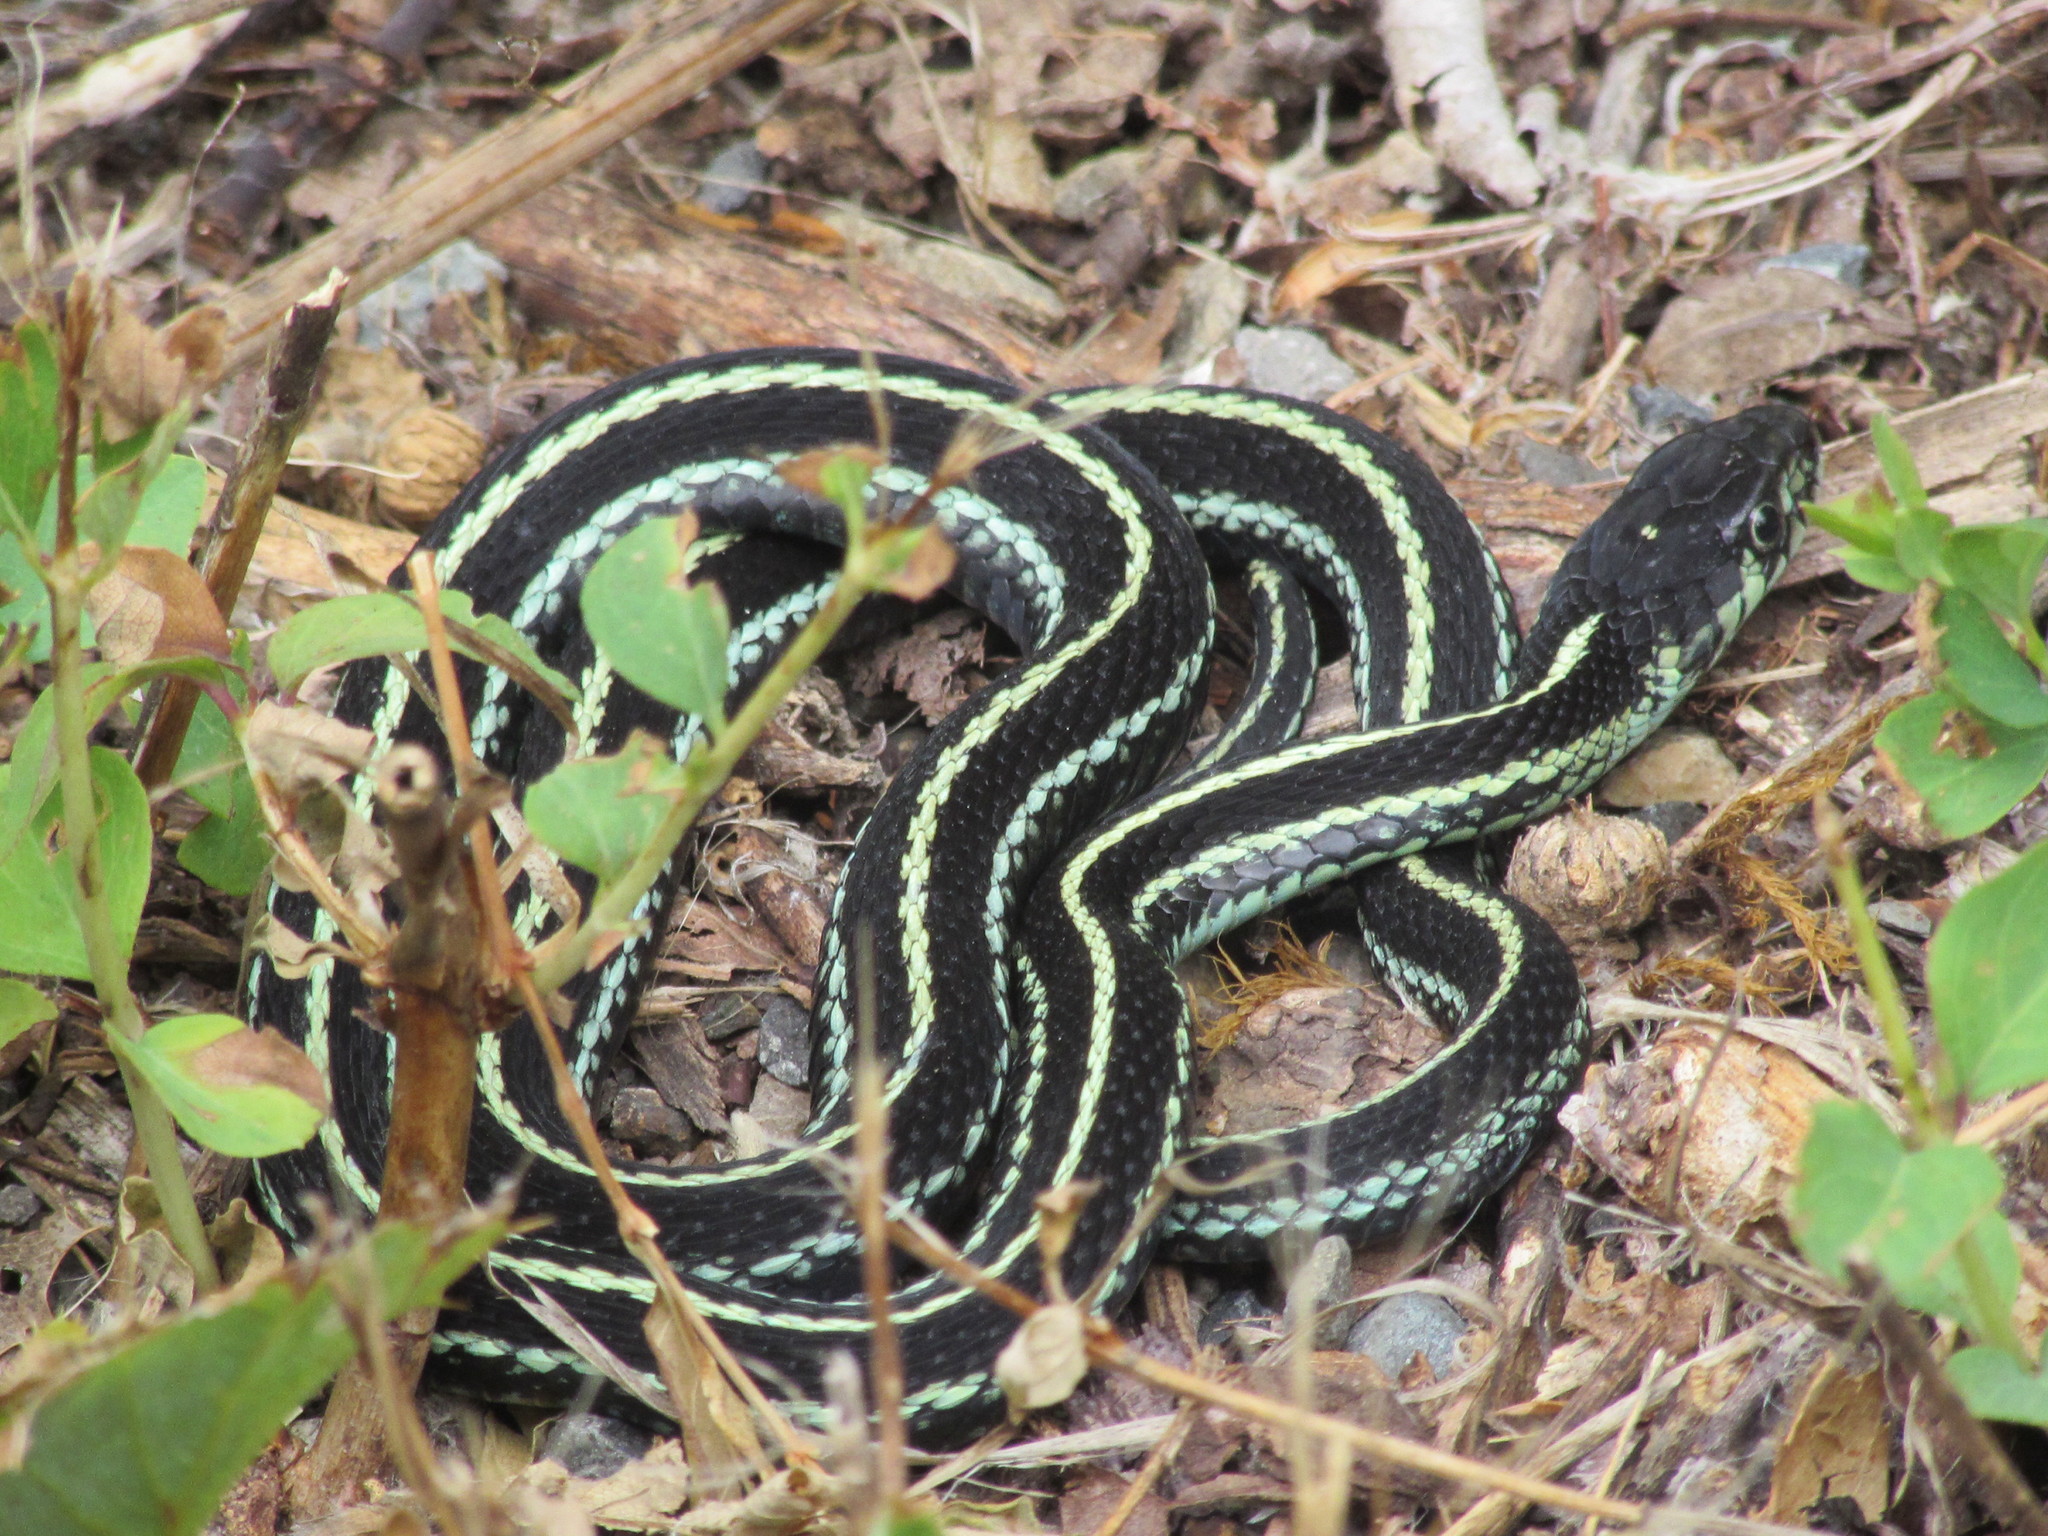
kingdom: Animalia
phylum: Chordata
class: Squamata
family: Colubridae
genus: Thamnophis
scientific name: Thamnophis sirtalis
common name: Common garter snake
